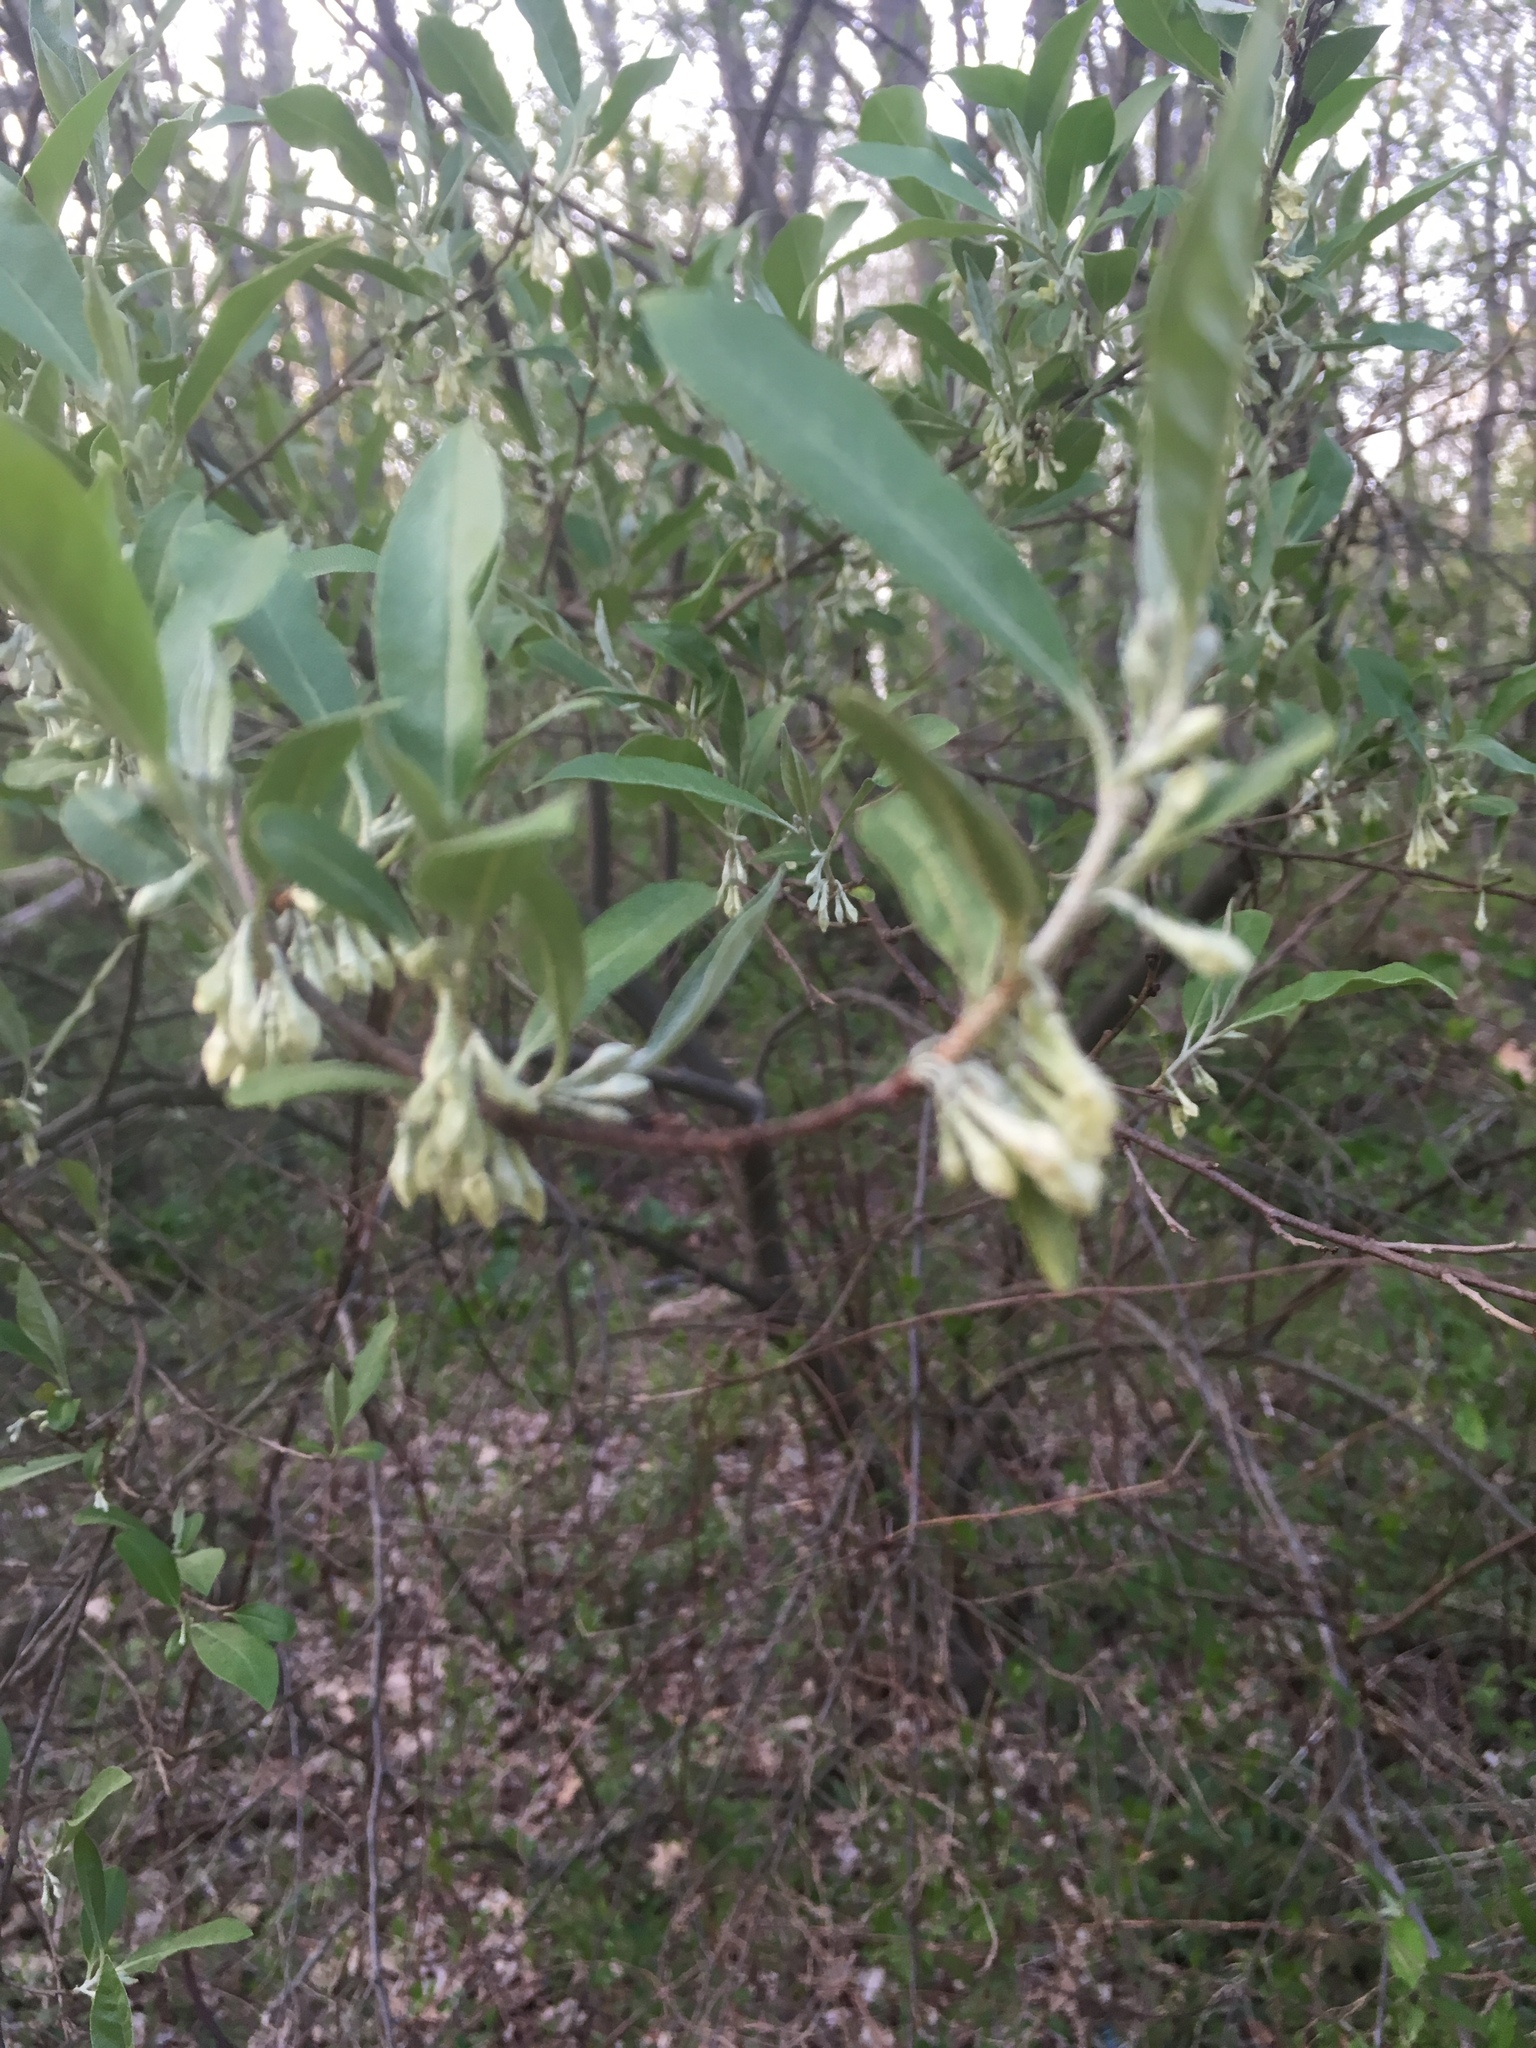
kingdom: Plantae
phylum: Tracheophyta
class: Magnoliopsida
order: Rosales
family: Elaeagnaceae
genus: Elaeagnus
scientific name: Elaeagnus umbellata
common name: Autumn olive
